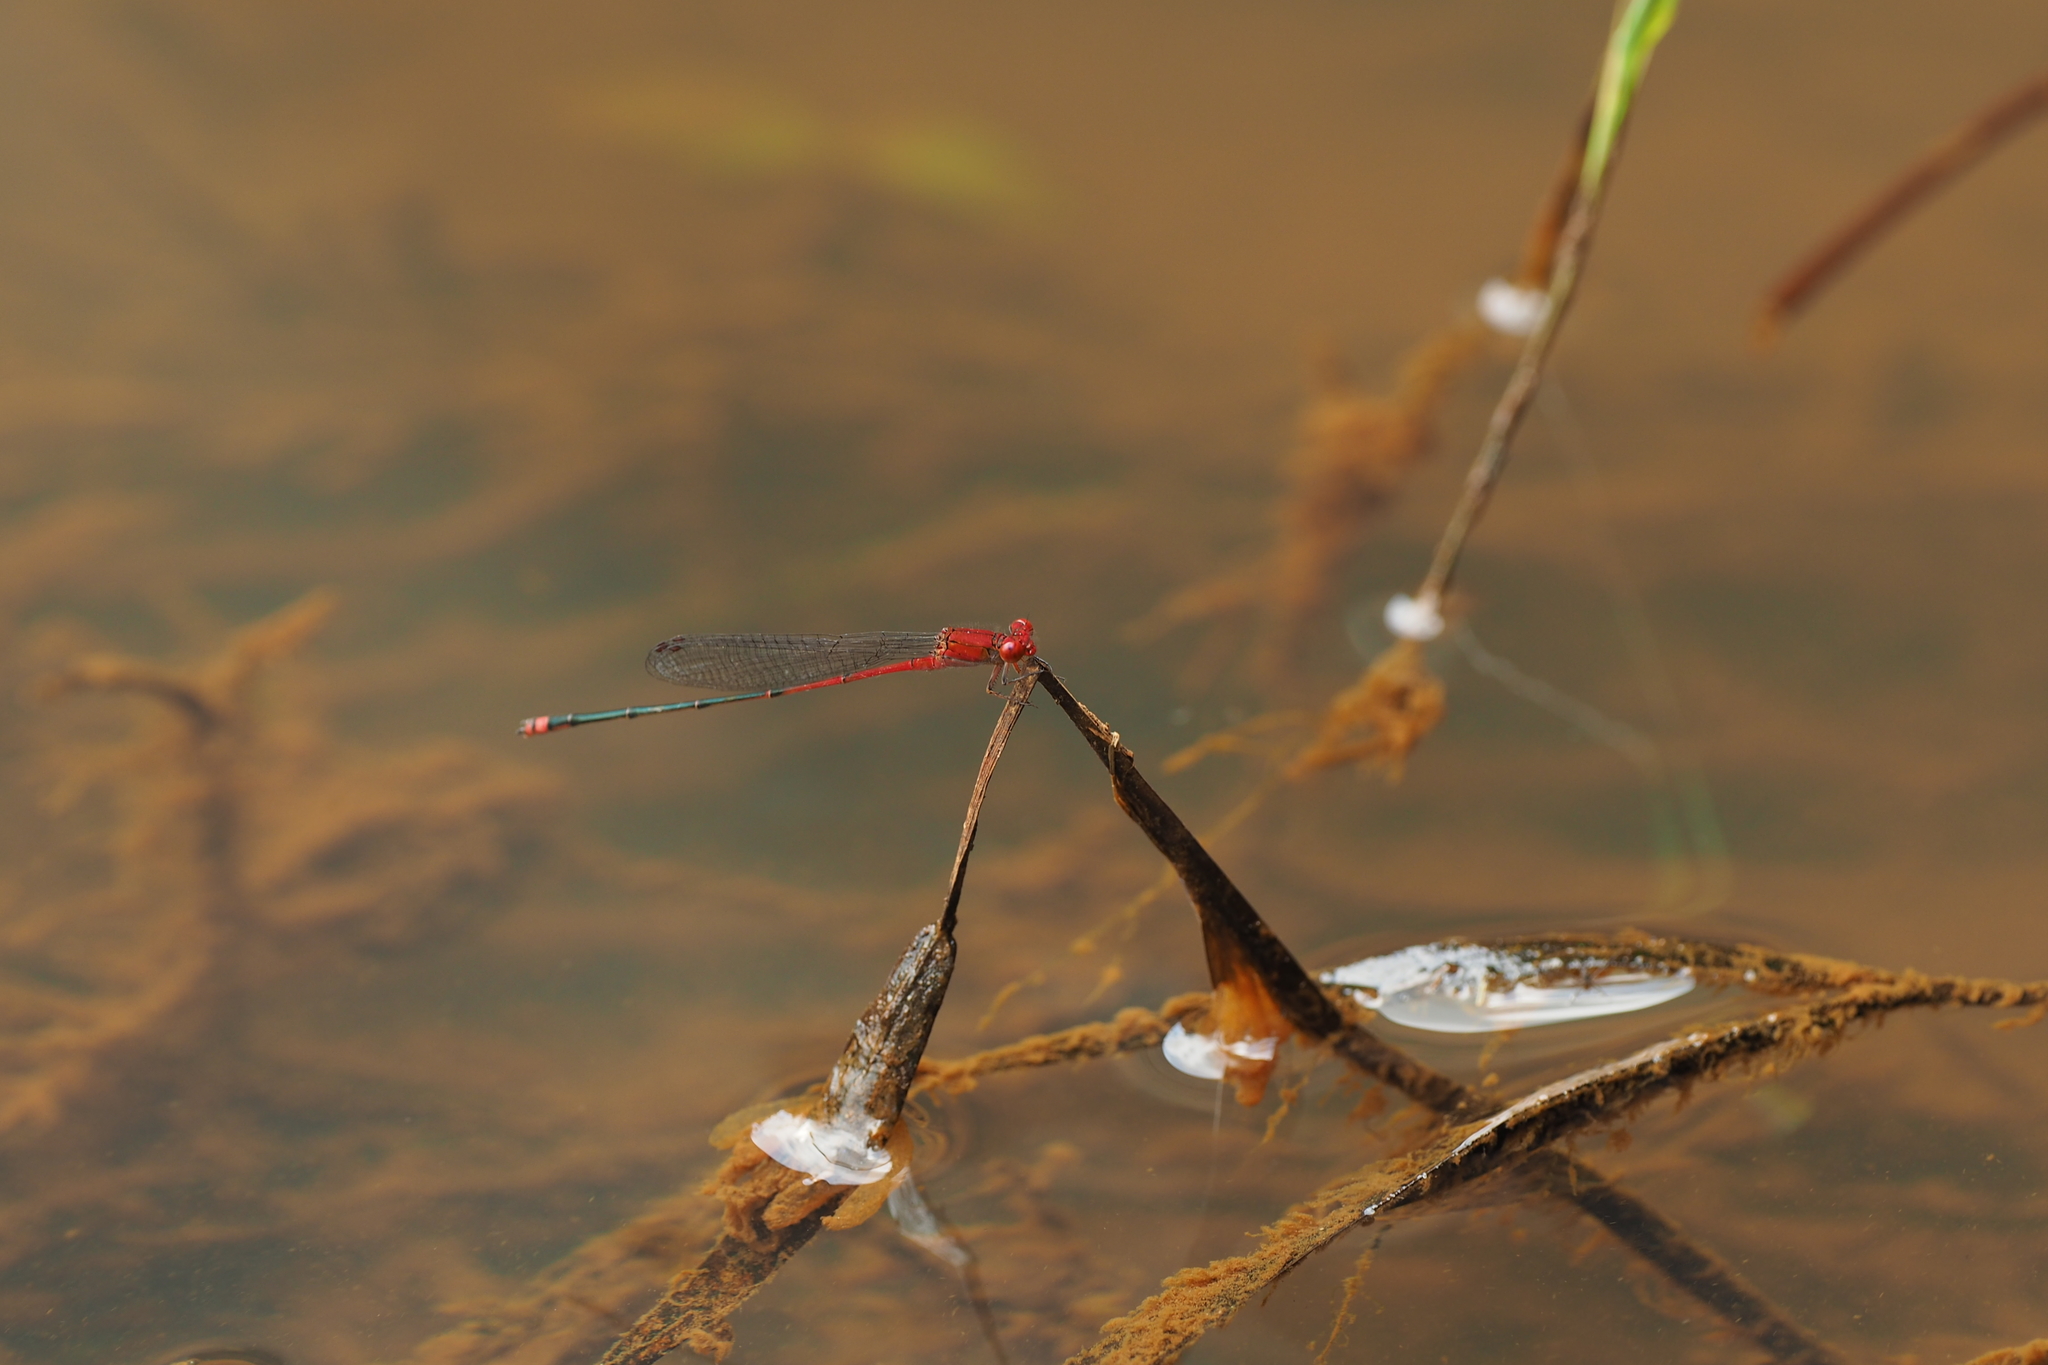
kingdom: Animalia
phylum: Arthropoda
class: Insecta
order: Odonata
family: Coenagrionidae
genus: Pseudagrion
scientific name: Pseudagrion pilidorsum
